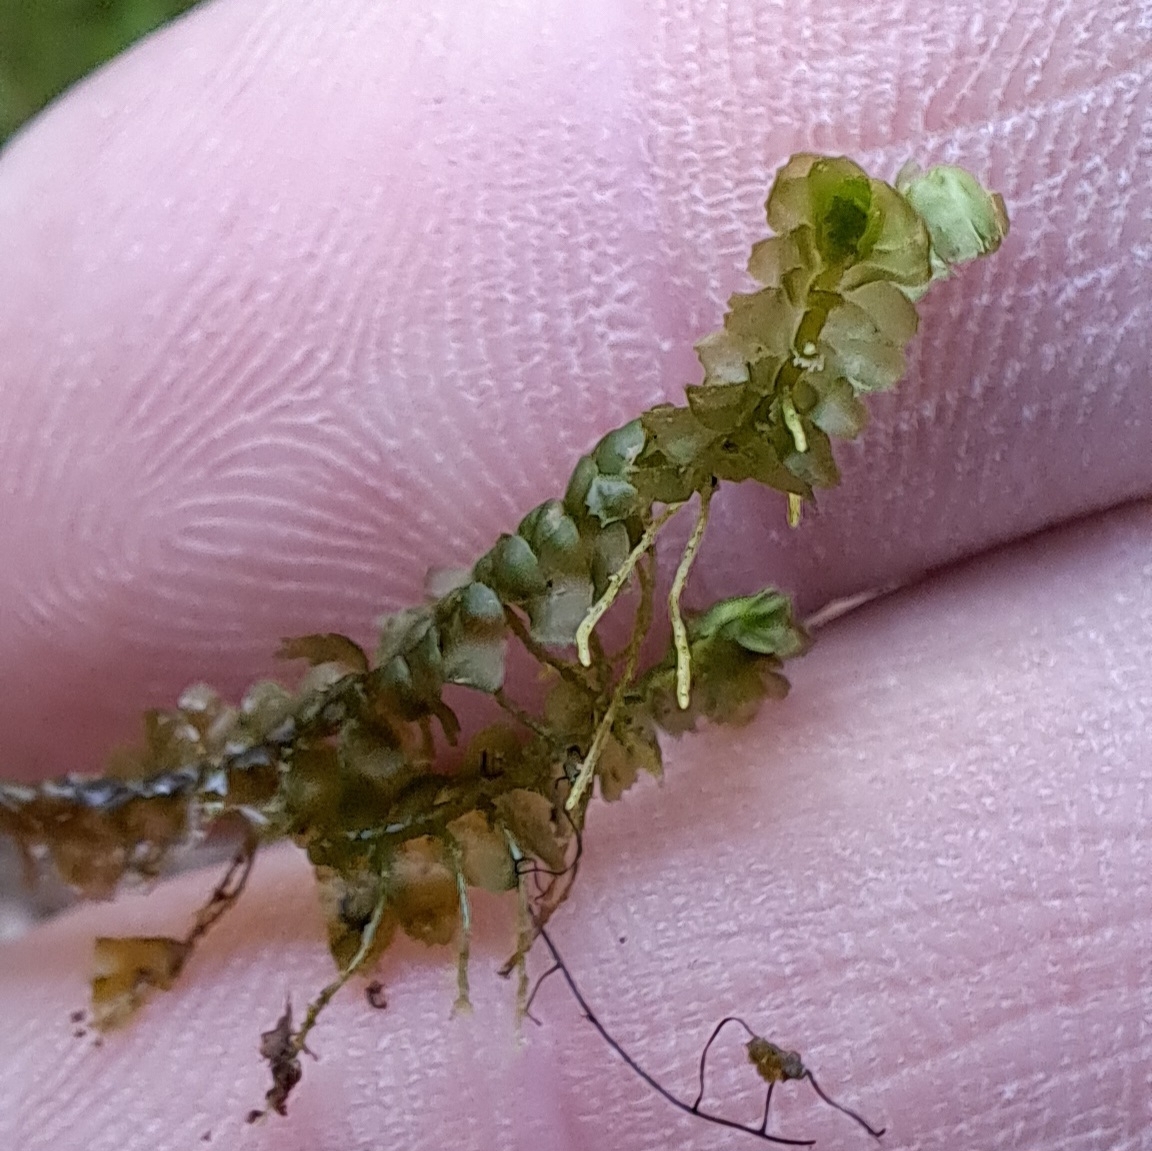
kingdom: Plantae
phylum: Marchantiophyta
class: Jungermanniopsida
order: Jungermanniales
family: Lepidoziaceae
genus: Bazzania
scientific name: Bazzania trilobata
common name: Three-lobed whipwort
